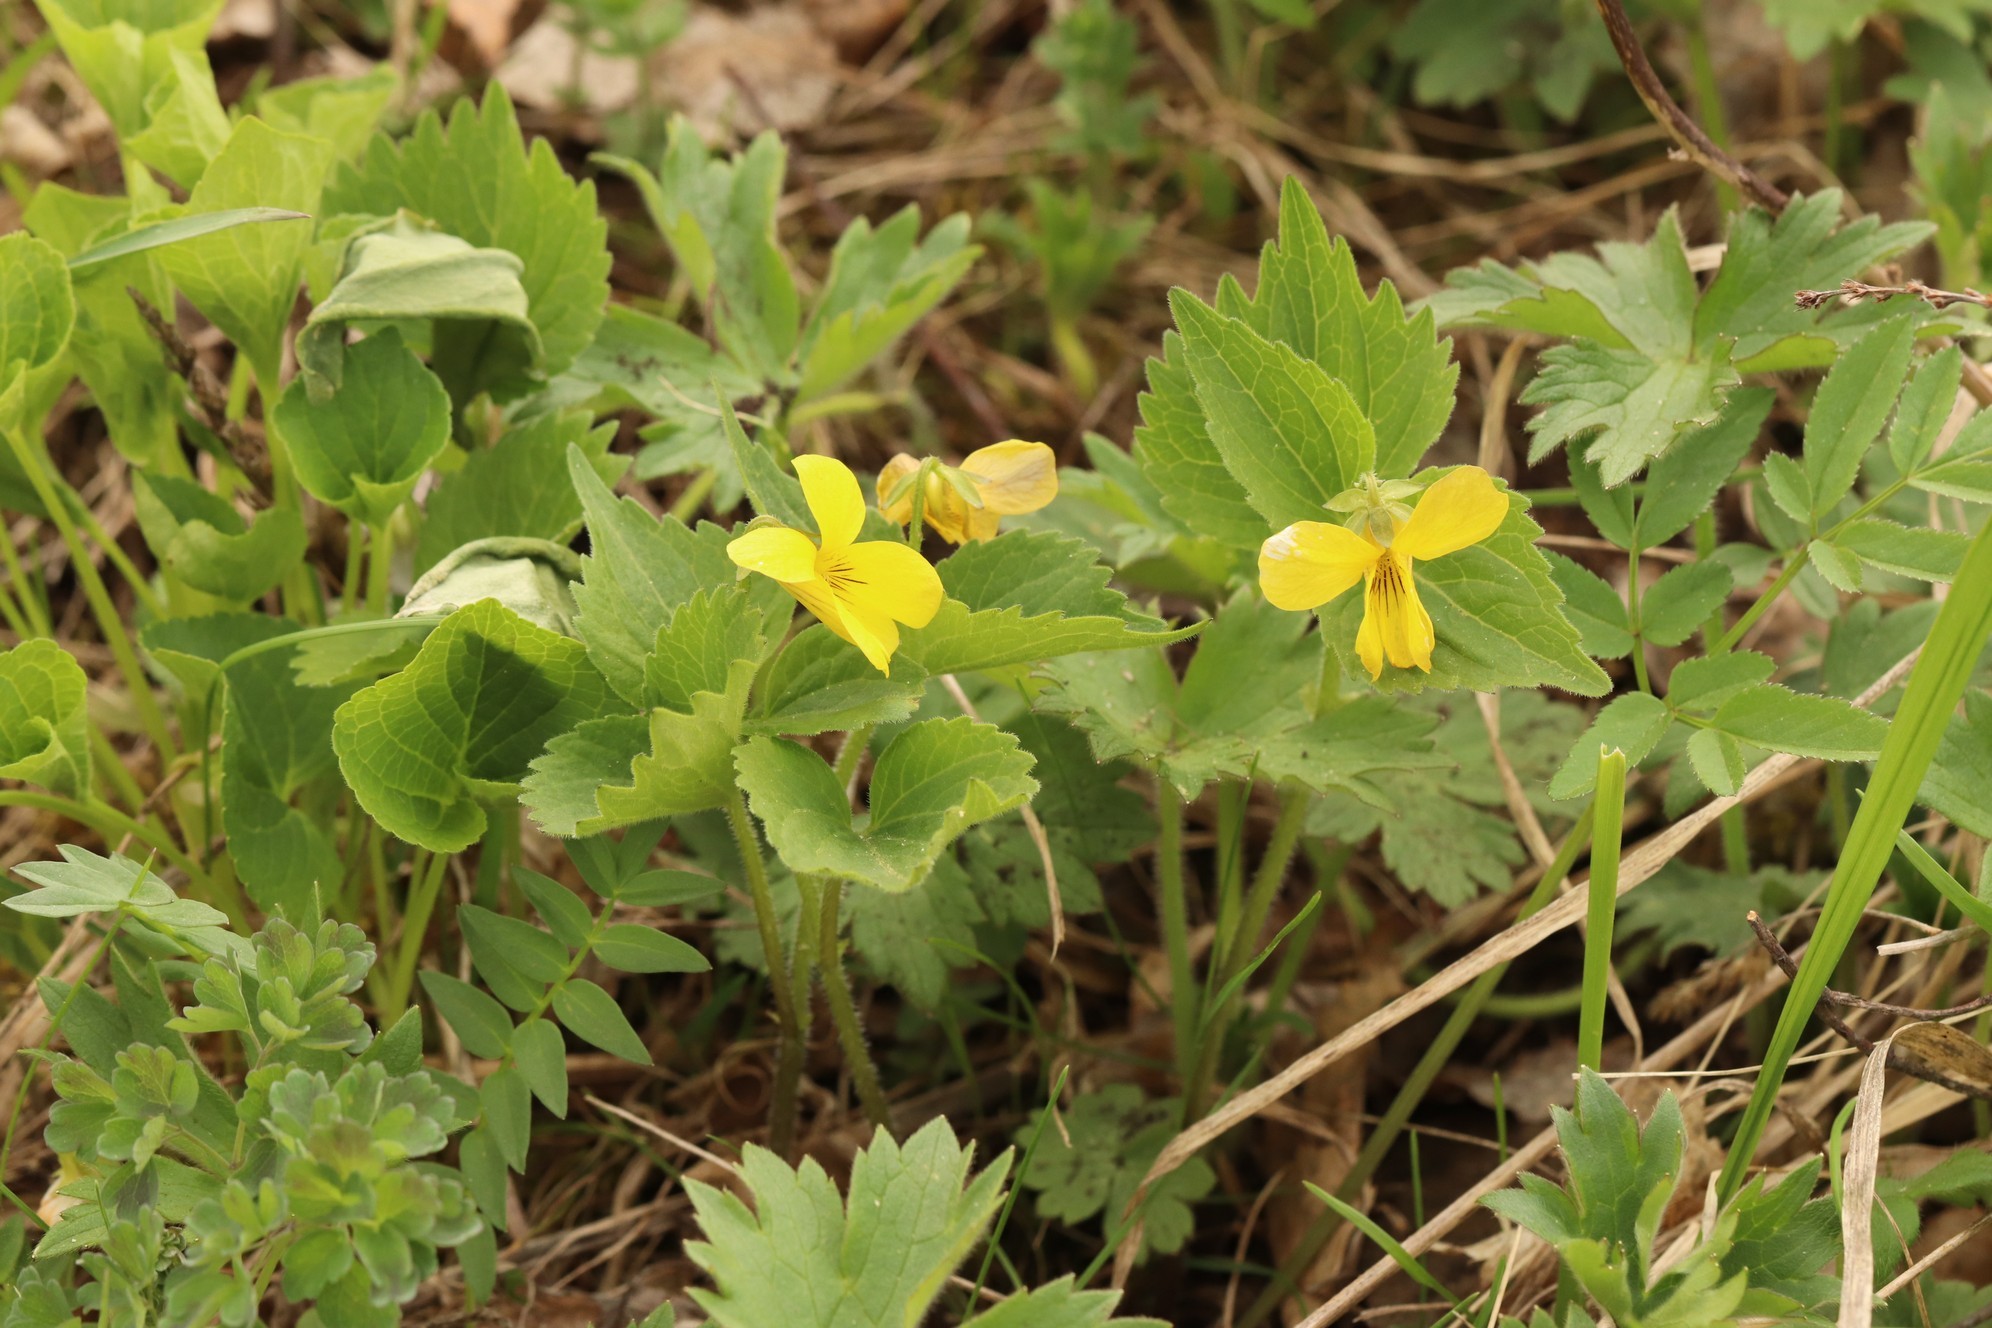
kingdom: Plantae
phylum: Tracheophyta
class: Magnoliopsida
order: Malpighiales
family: Violaceae
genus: Viola
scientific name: Viola uniflora
